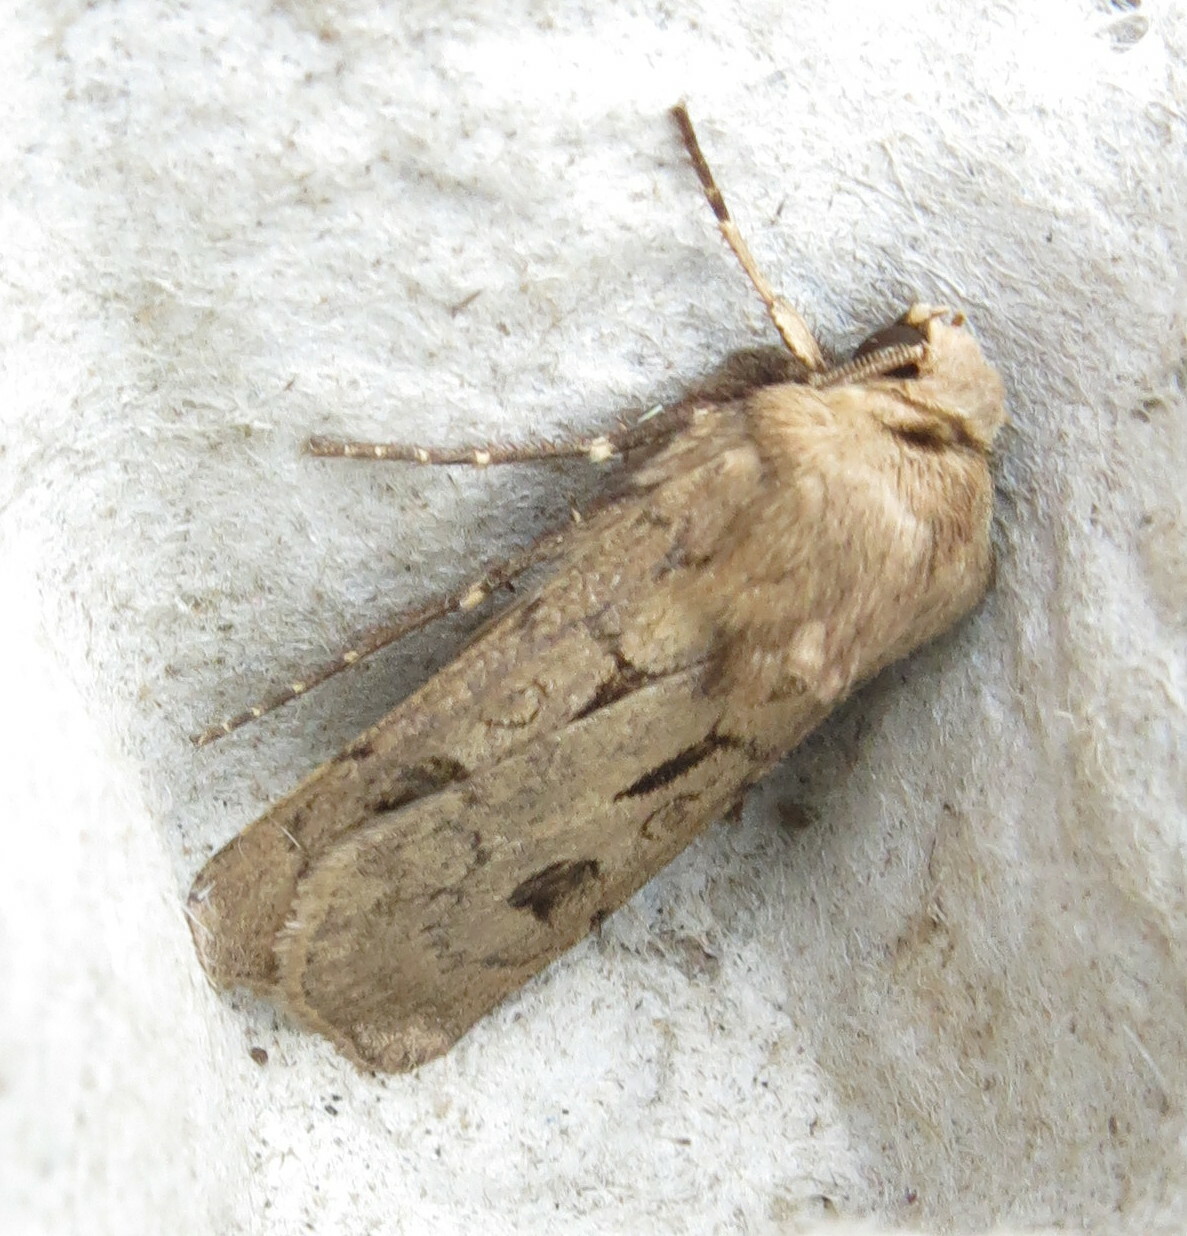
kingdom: Animalia
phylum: Arthropoda
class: Insecta
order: Lepidoptera
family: Noctuidae
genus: Agrotis
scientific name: Agrotis exclamationis
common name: Heart and dart
